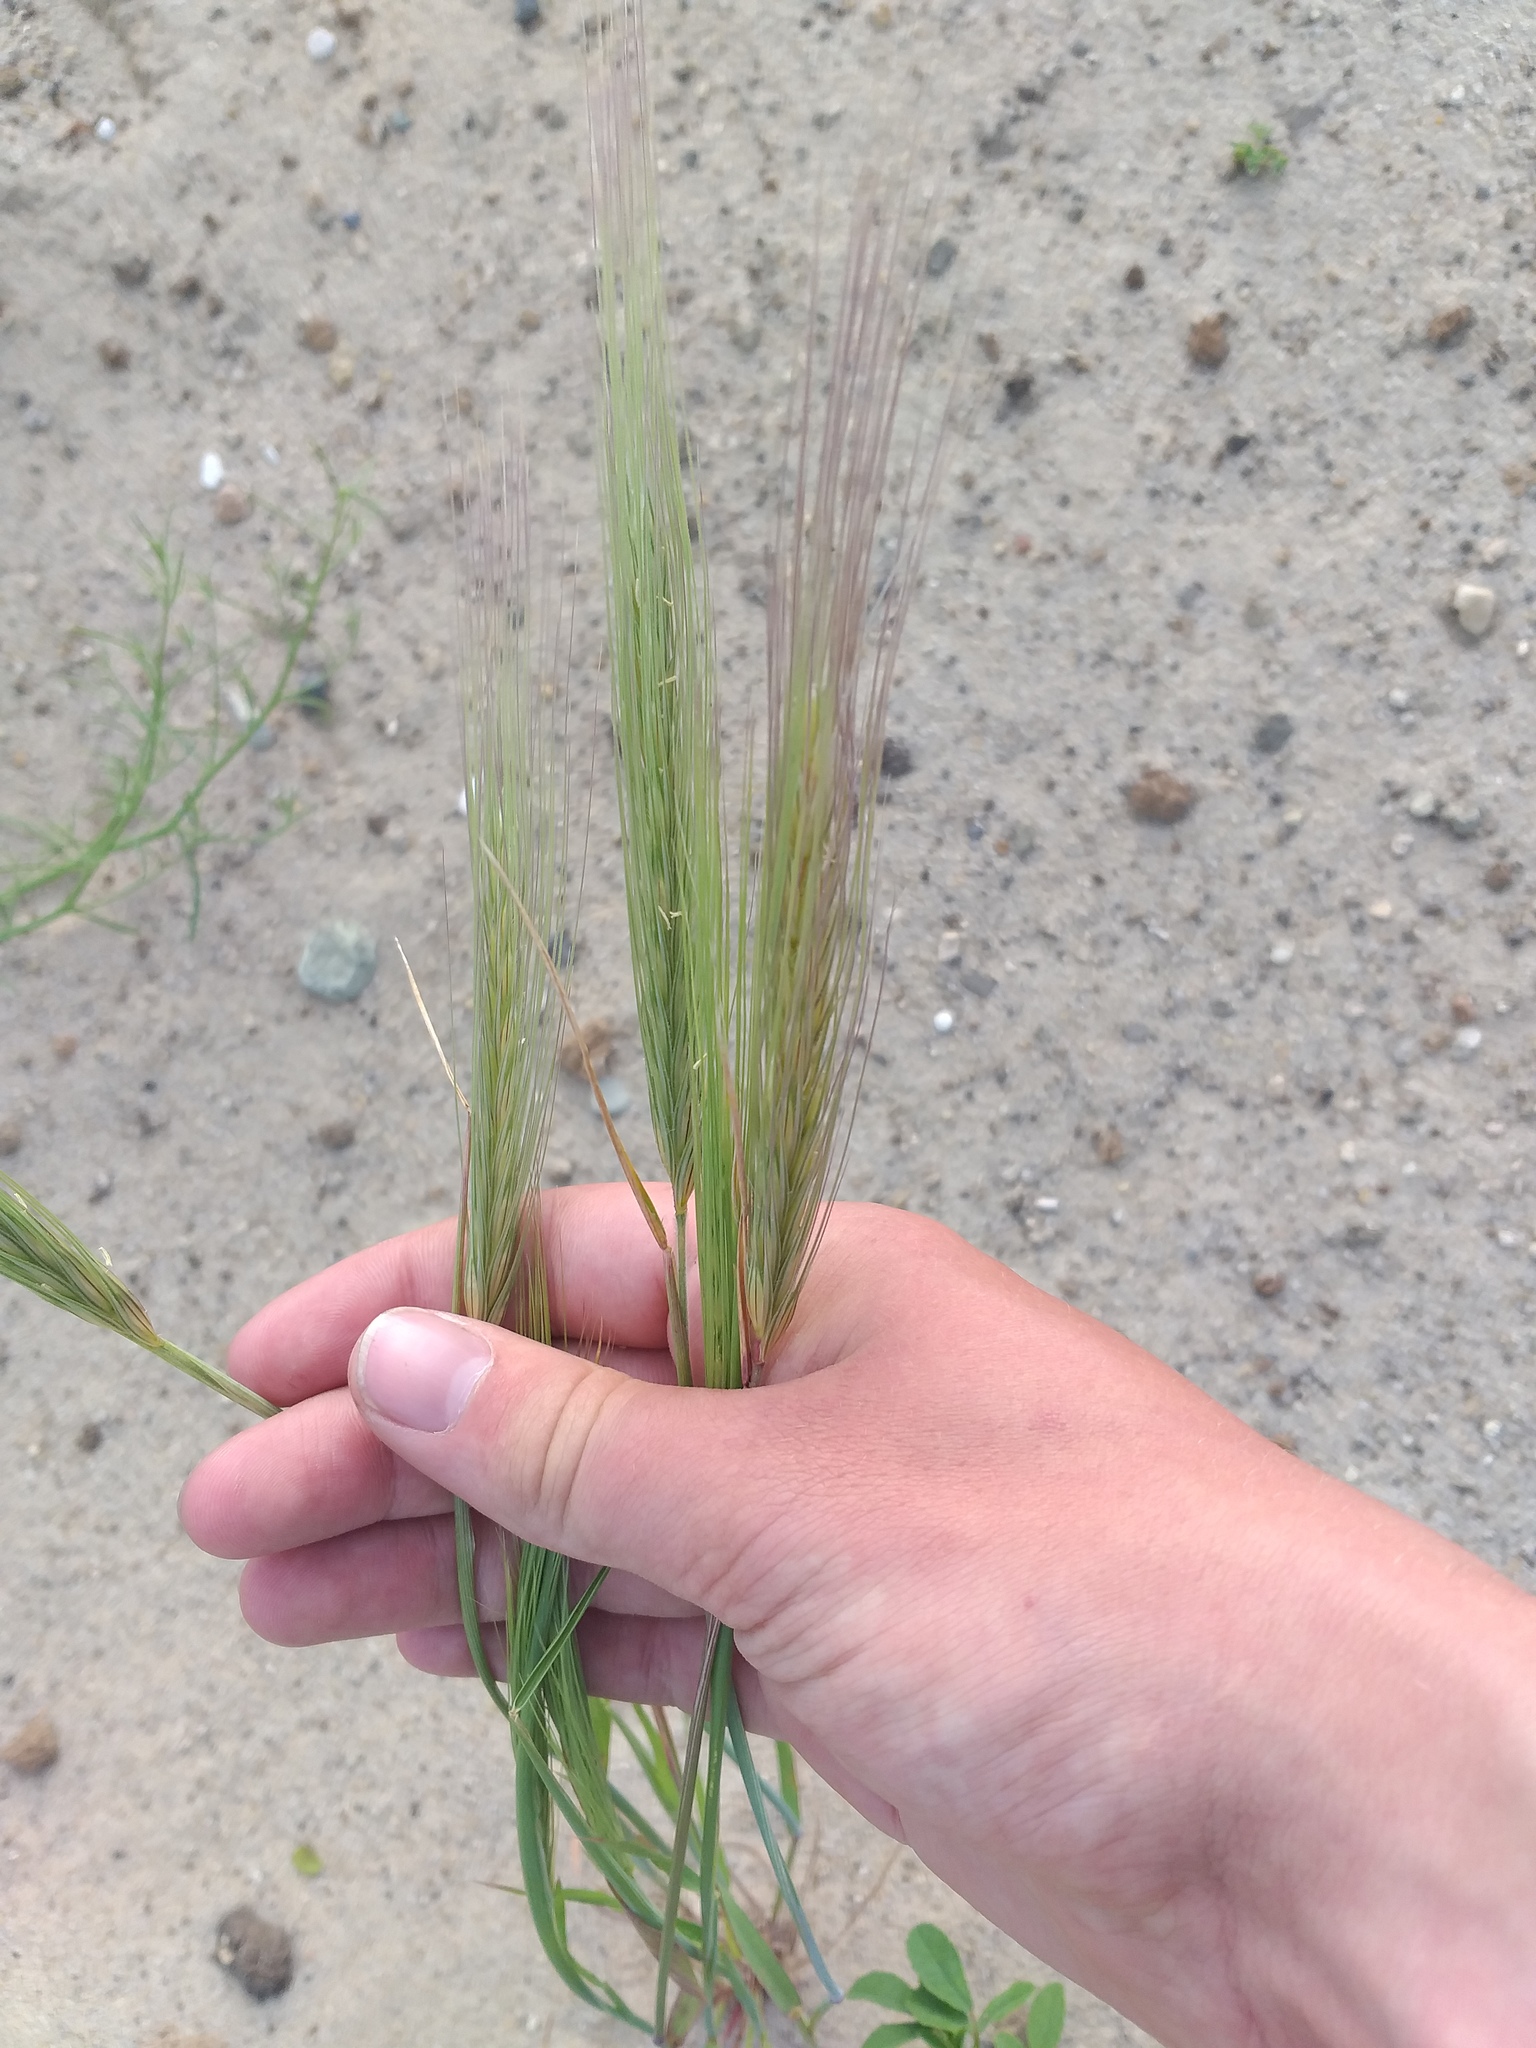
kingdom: Plantae
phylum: Tracheophyta
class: Liliopsida
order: Poales
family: Poaceae
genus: Secale
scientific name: Secale sylvestre
